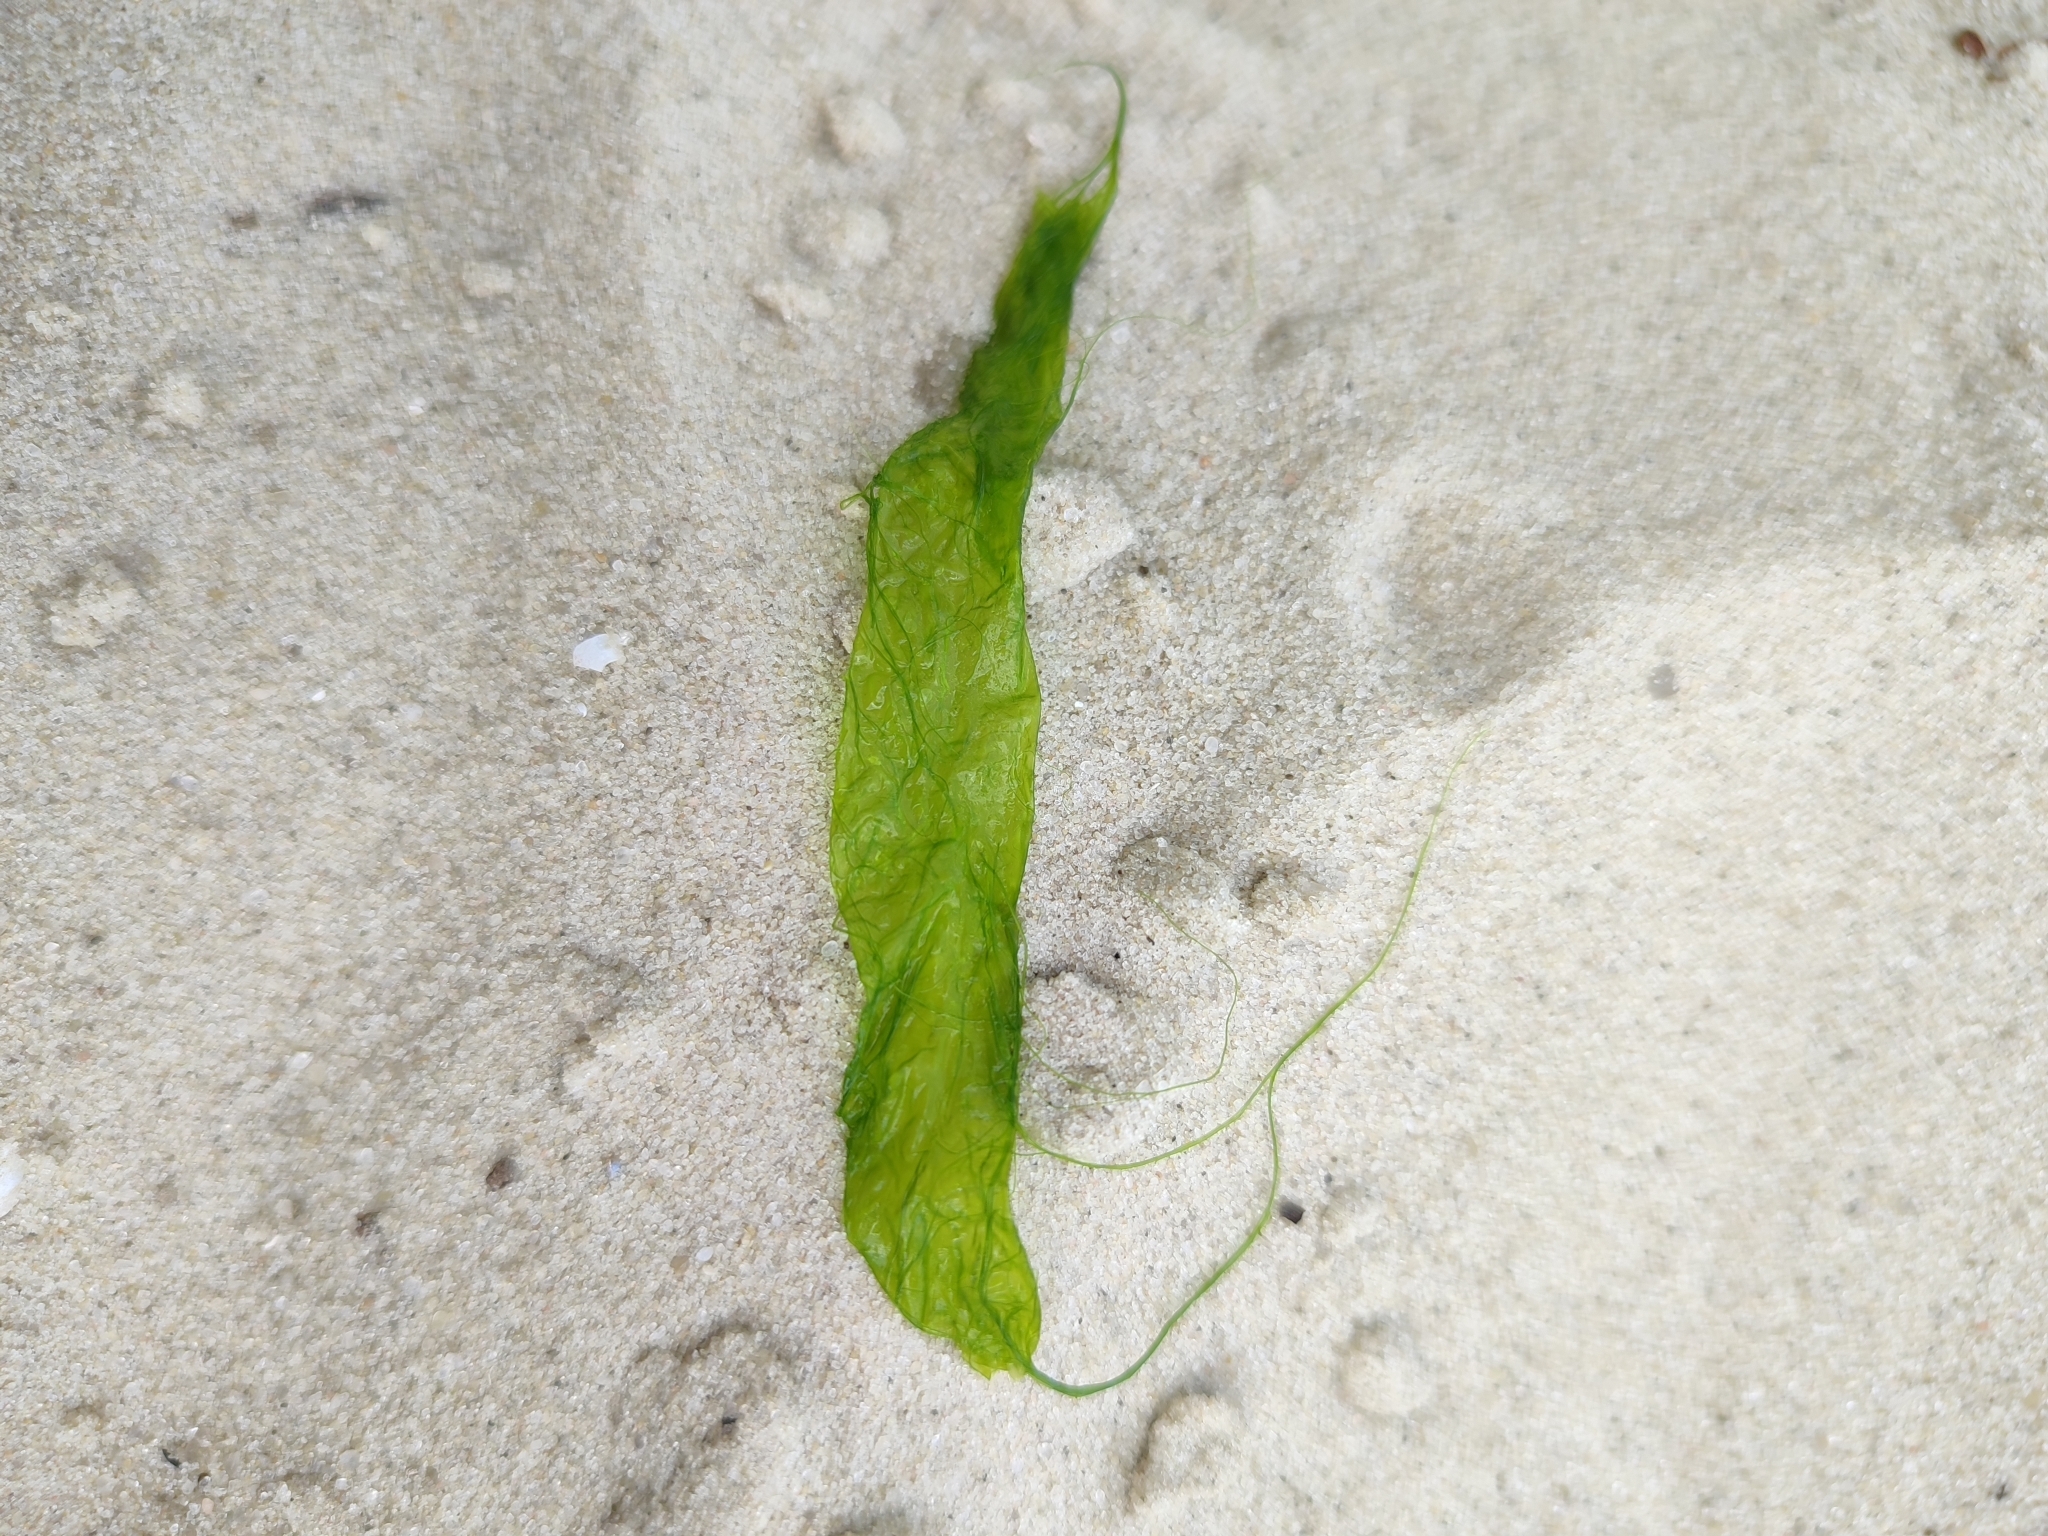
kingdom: Plantae
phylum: Chlorophyta
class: Ulvophyceae
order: Ulvales
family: Ulvaceae
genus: Ulva
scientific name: Ulva intestinalis
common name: Gut weed
